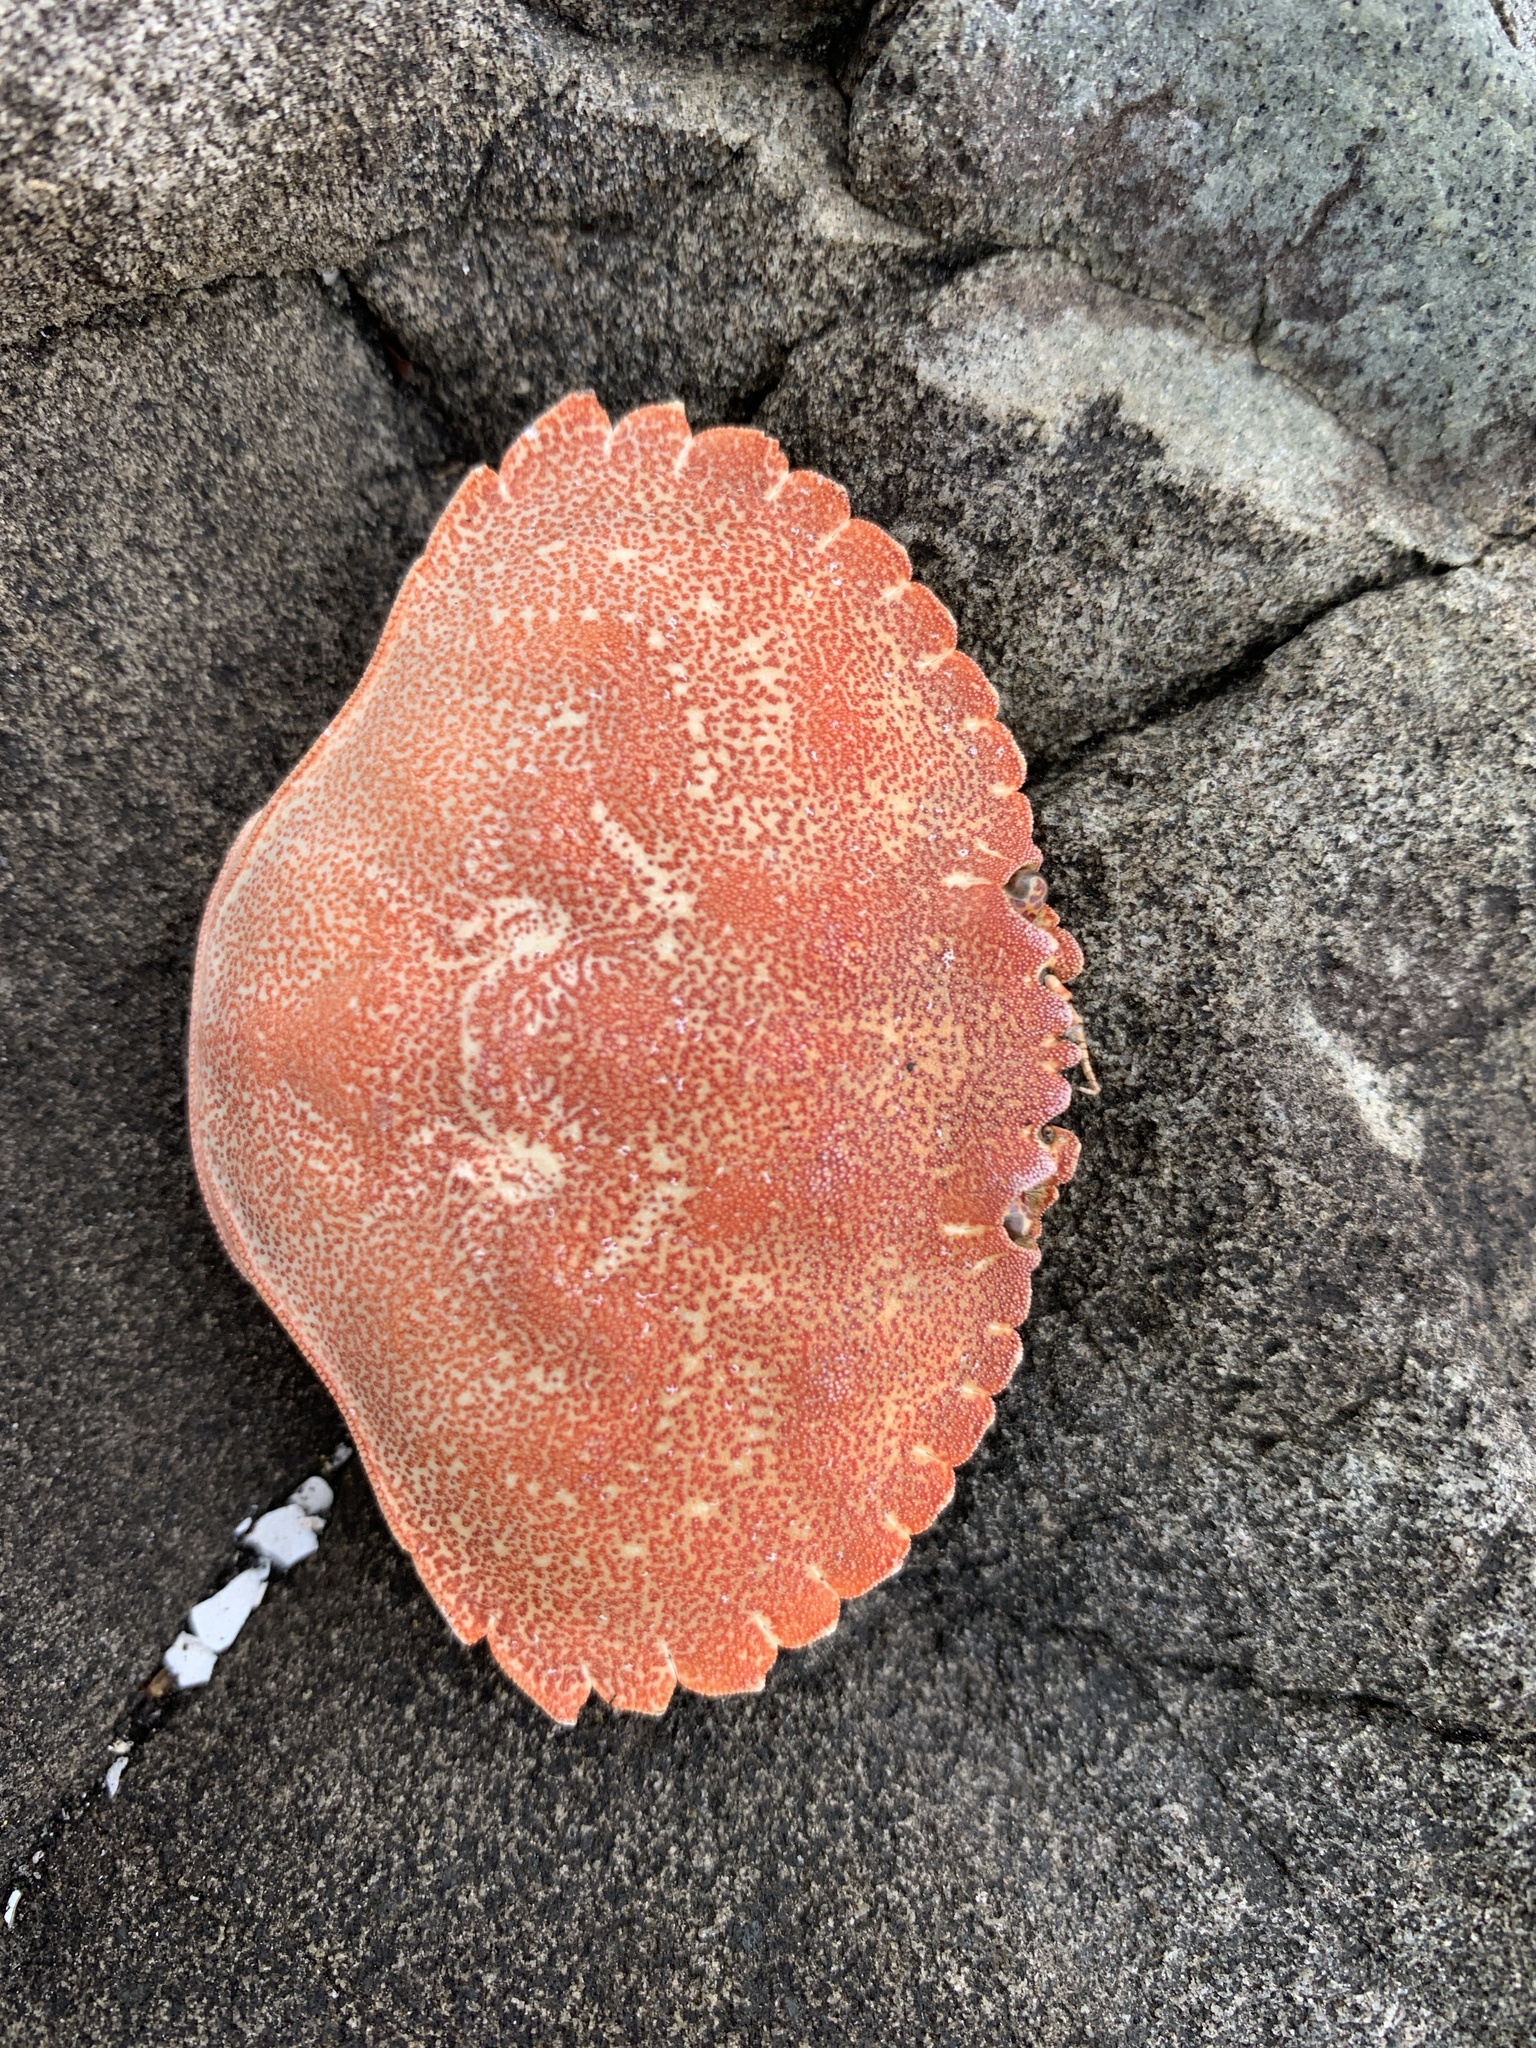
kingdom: Animalia
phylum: Arthropoda
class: Malacostraca
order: Decapoda
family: Cancridae
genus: Cancer
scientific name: Cancer irroratus
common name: Atlantic rock crab
